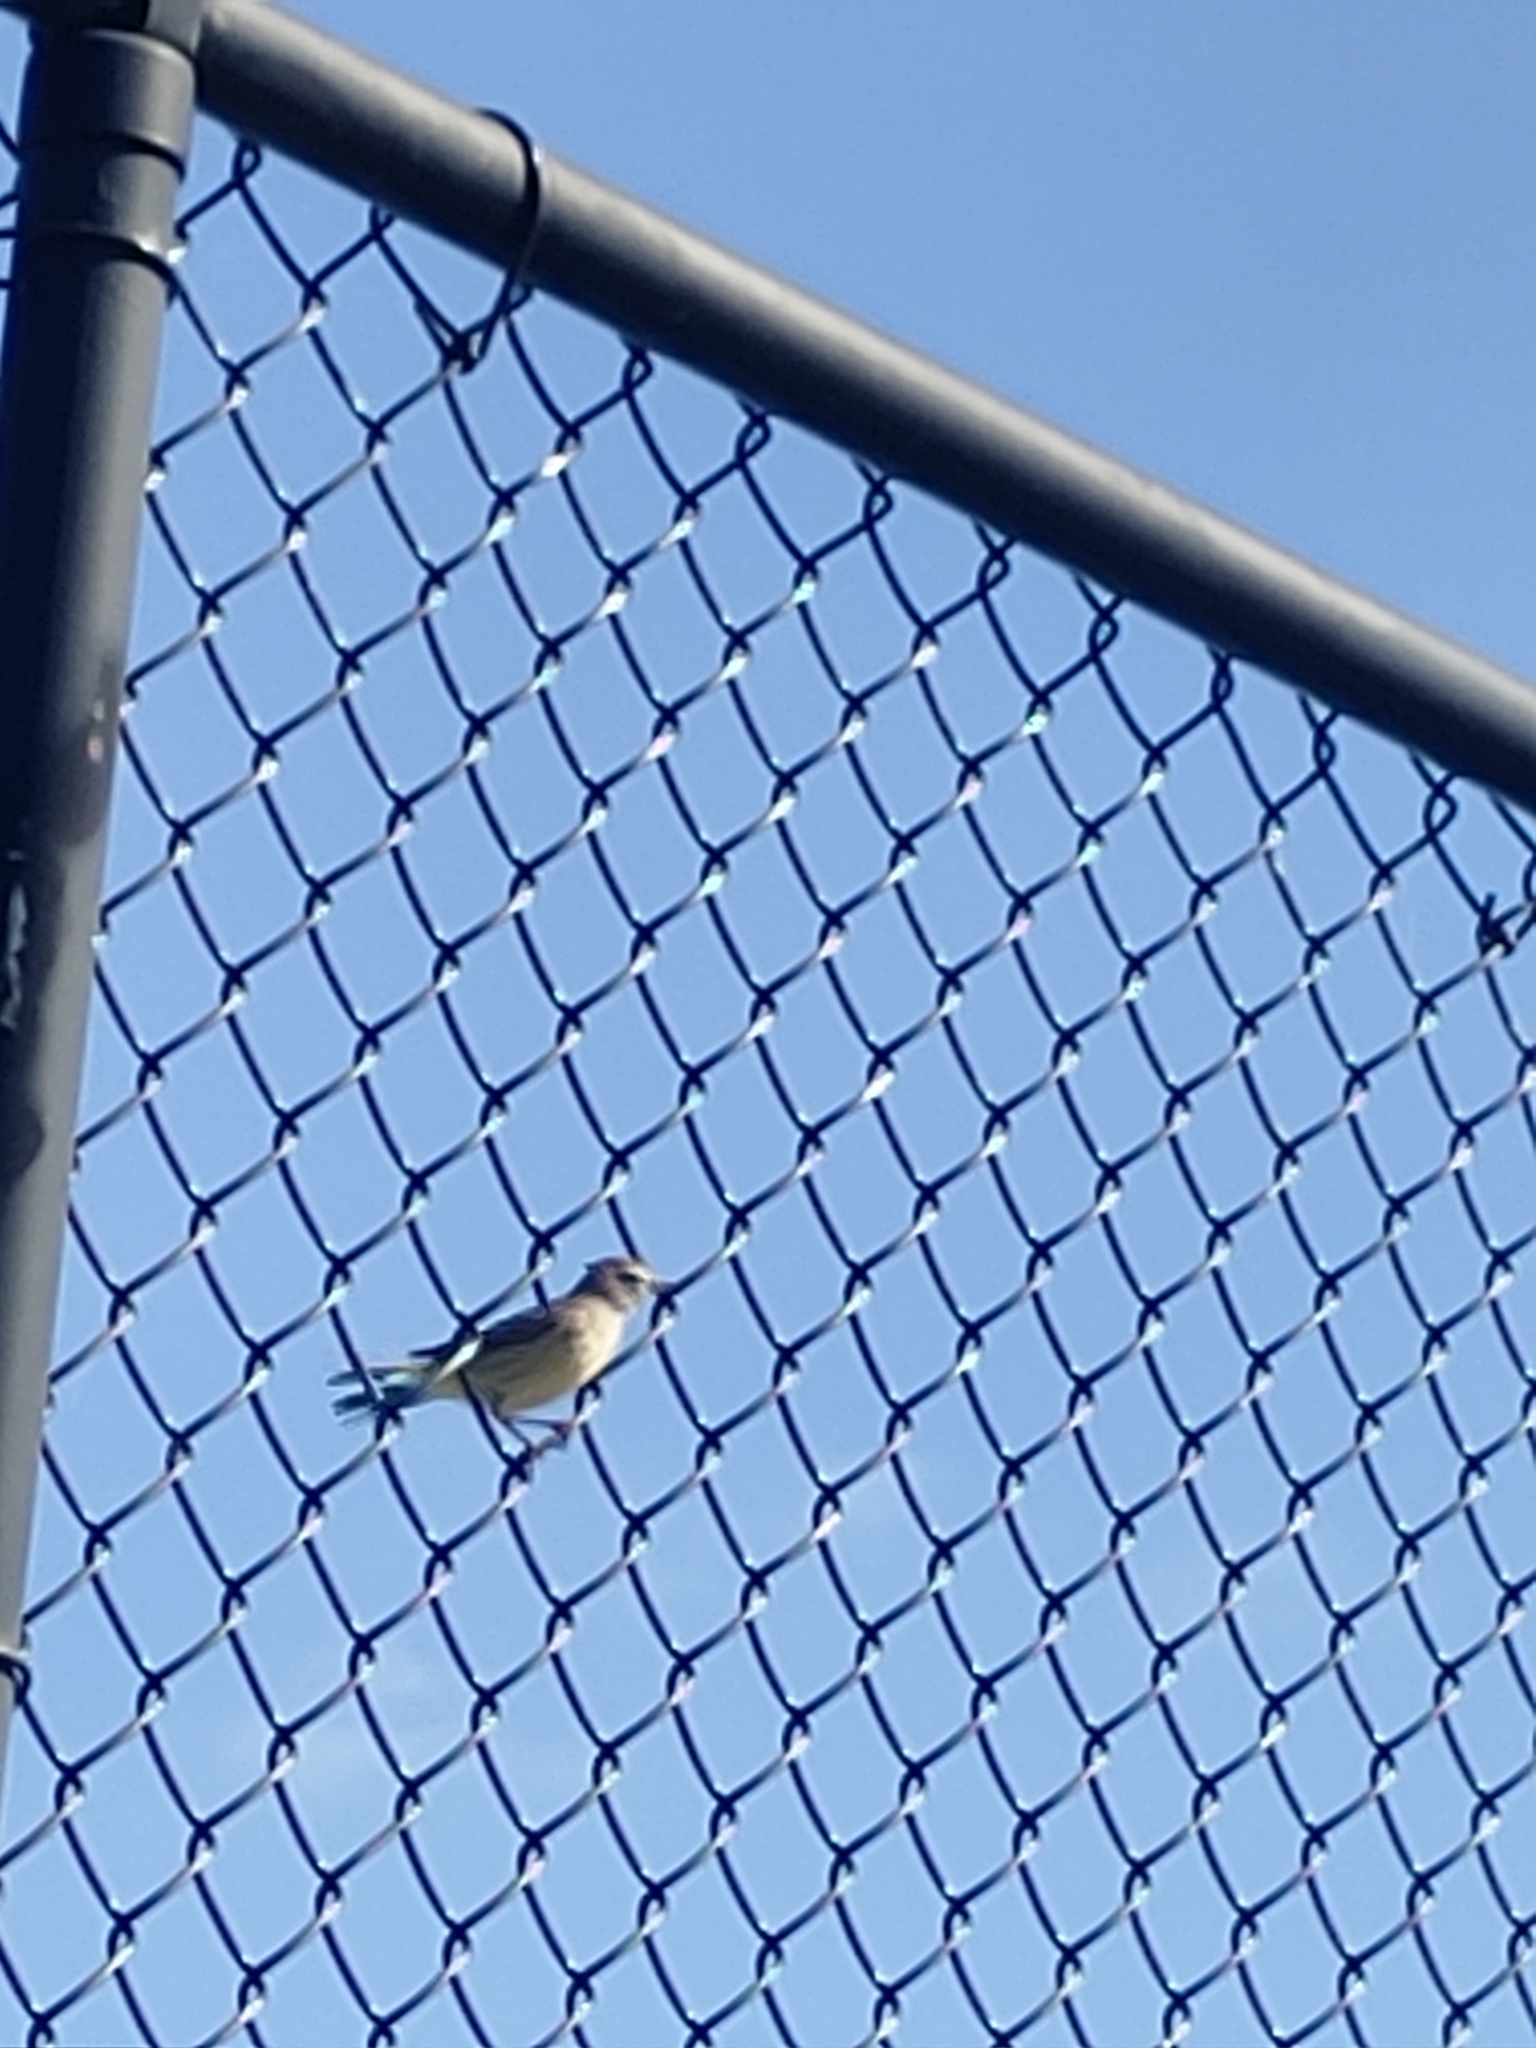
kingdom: Animalia
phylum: Chordata
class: Aves
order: Passeriformes
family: Parulidae
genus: Setophaga
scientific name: Setophaga palmarum
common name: Palm warbler
